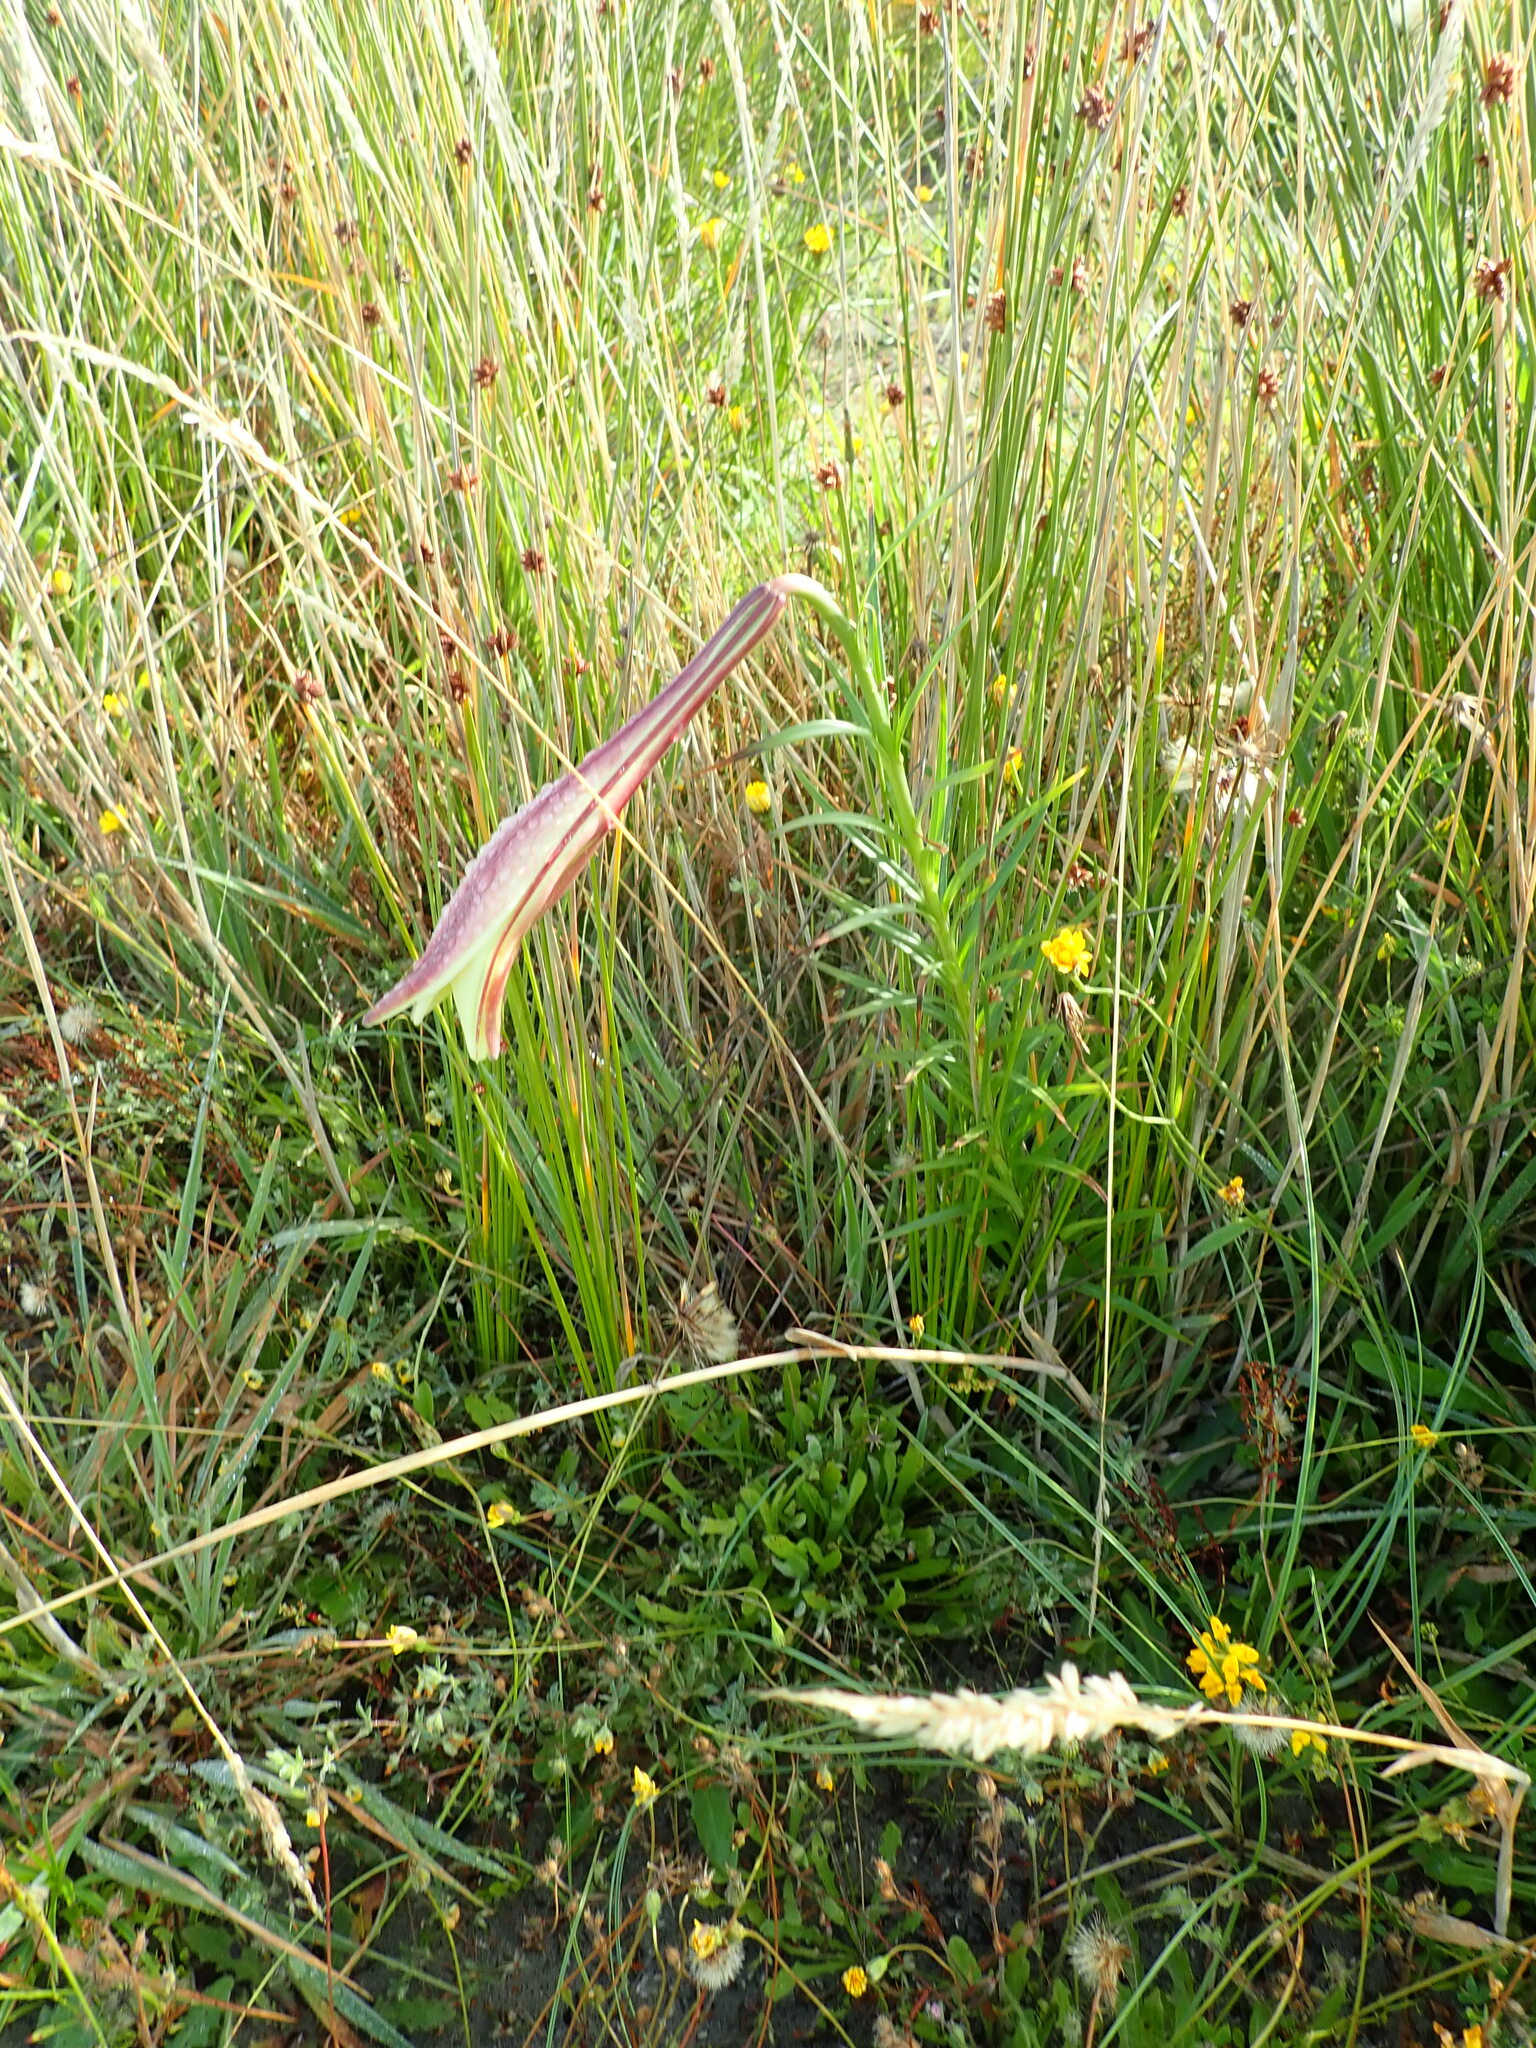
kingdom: Plantae
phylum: Tracheophyta
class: Liliopsida
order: Liliales
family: Liliaceae
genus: Lilium
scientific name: Lilium formosanum
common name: Formosa lily
